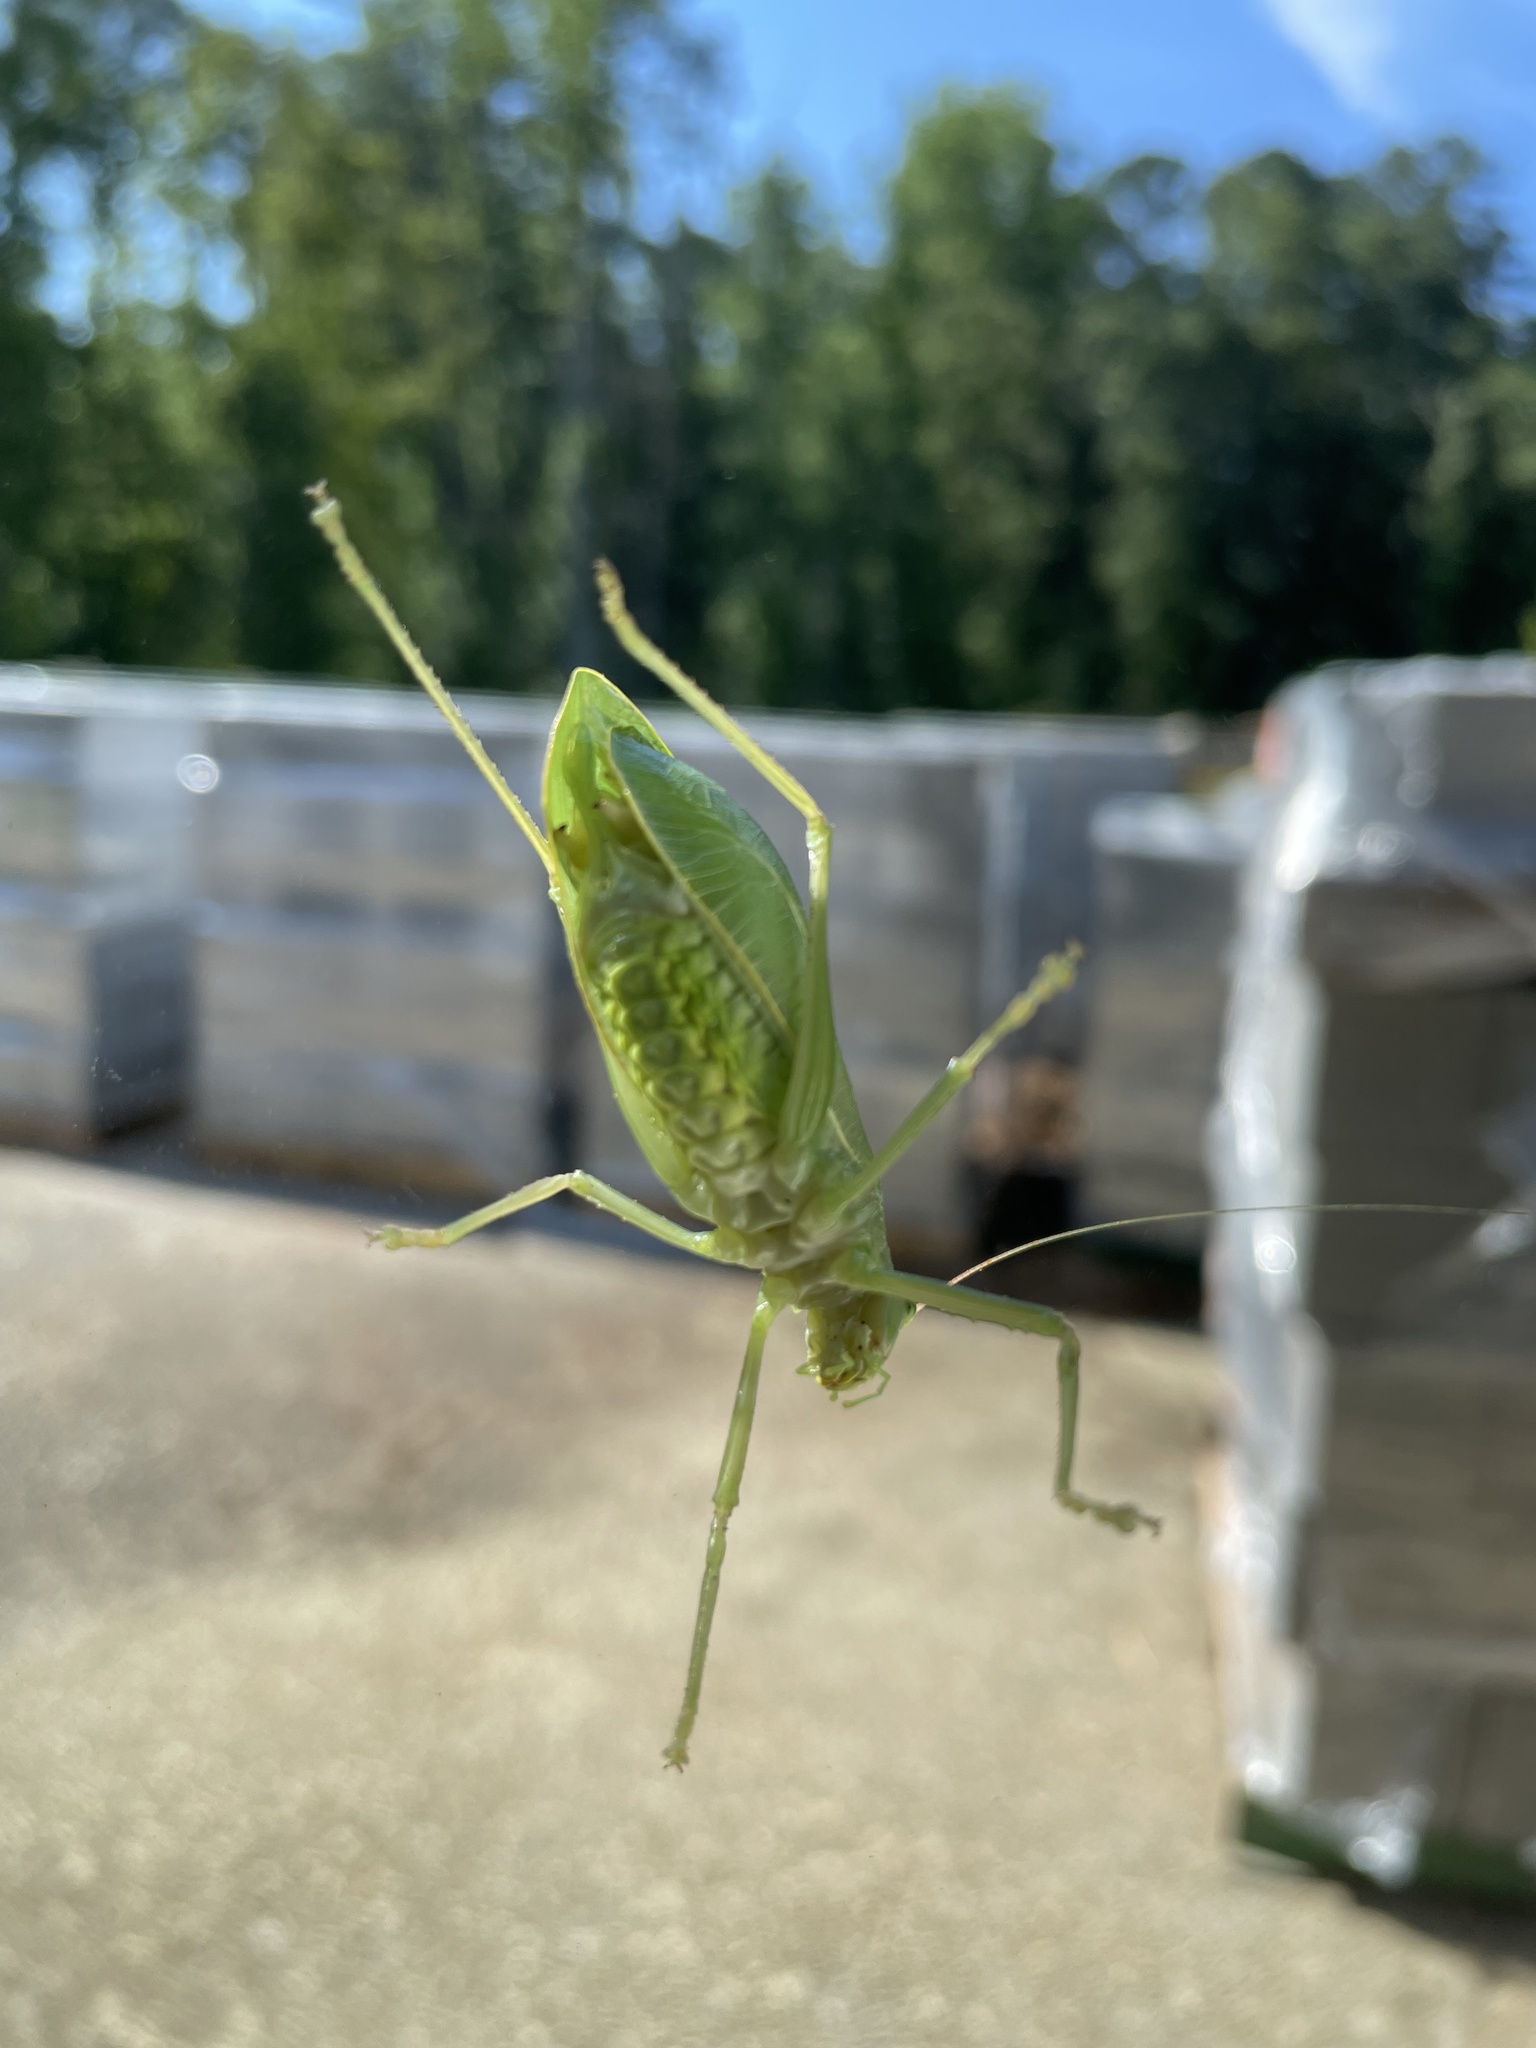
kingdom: Animalia
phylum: Arthropoda
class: Insecta
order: Orthoptera
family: Tettigoniidae
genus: Pterophylla
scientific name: Pterophylla camellifolia
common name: Common true katydid
